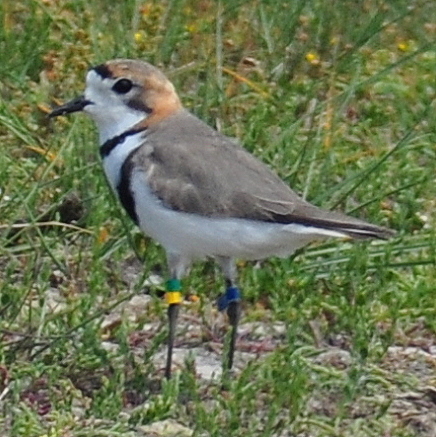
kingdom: Animalia
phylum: Chordata
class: Aves
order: Charadriiformes
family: Charadriidae
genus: Anarhynchus
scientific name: Anarhynchus
